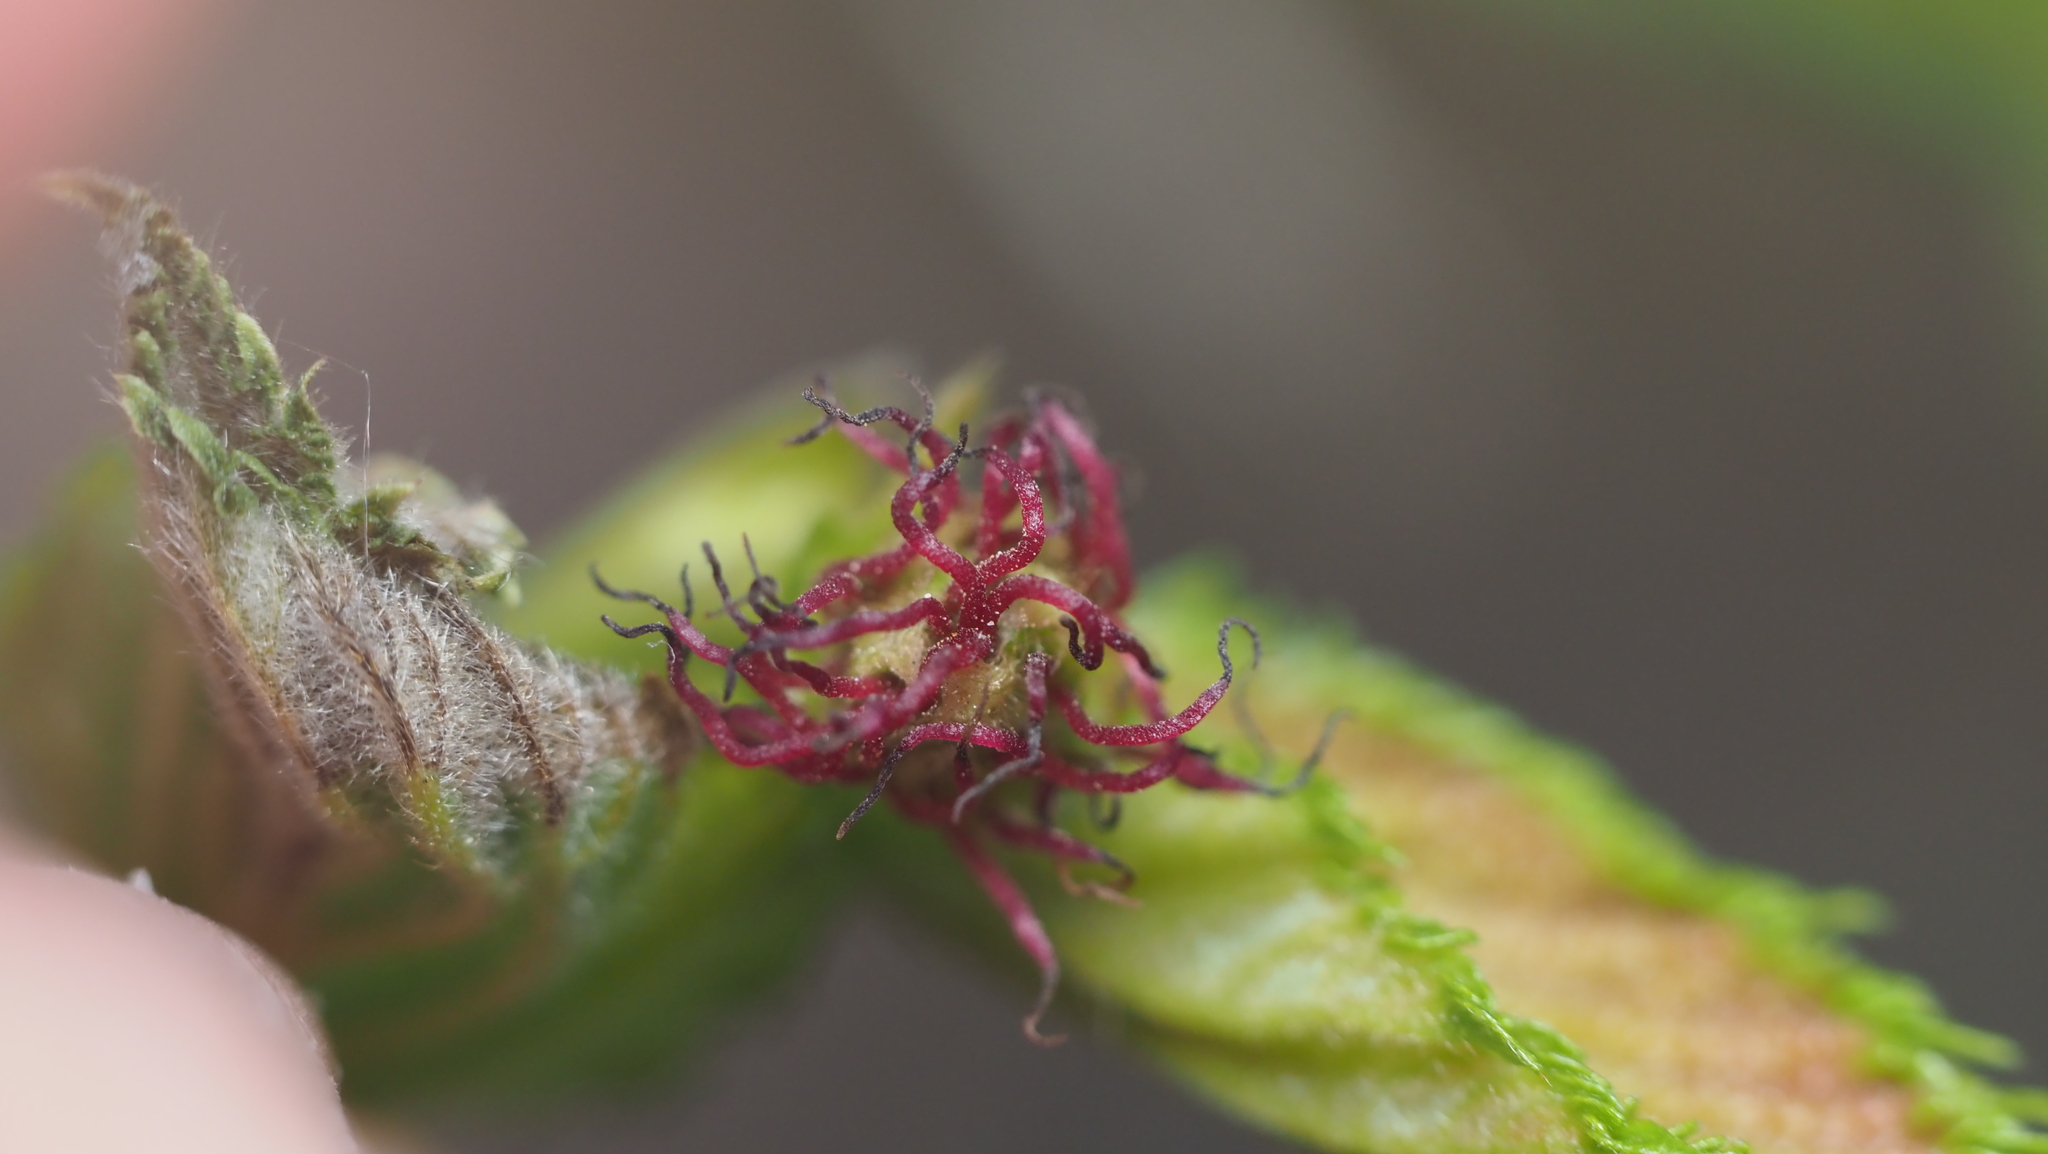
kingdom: Plantae
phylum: Tracheophyta
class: Magnoliopsida
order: Fagales
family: Betulaceae
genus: Corylus
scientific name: Corylus cornuta
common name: Beaked hazel
